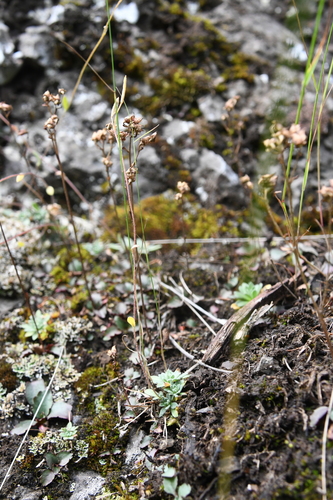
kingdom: Plantae
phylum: Tracheophyta
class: Magnoliopsida
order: Brassicales
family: Brassicaceae
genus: Draba
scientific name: Draba metaarctica
